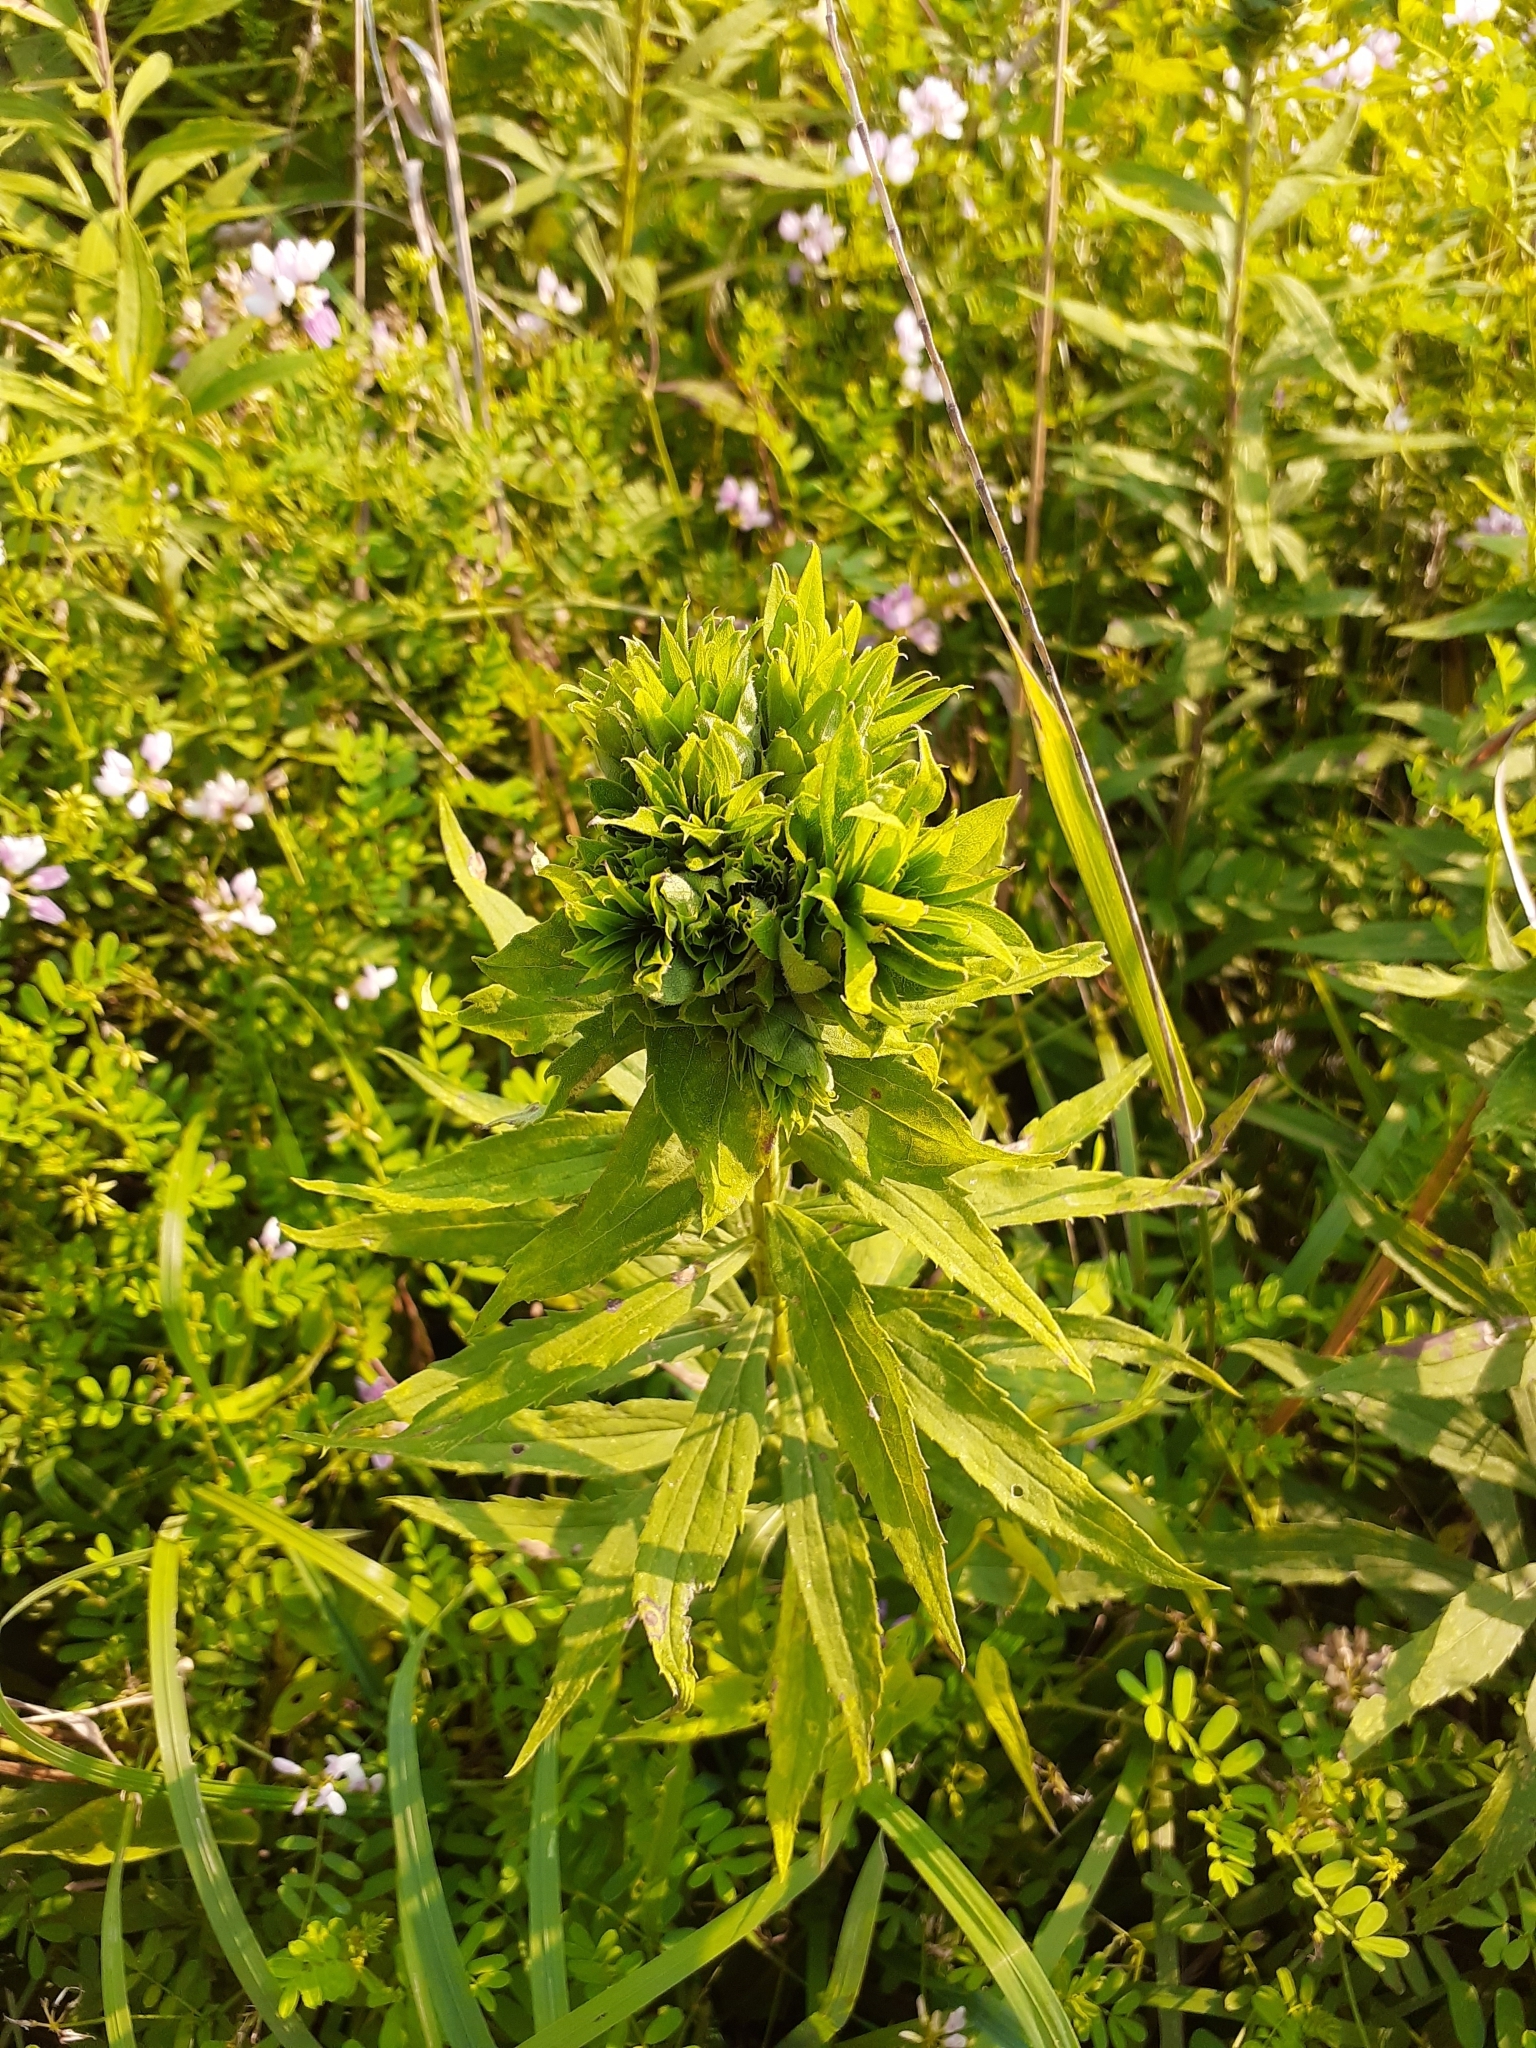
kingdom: Animalia
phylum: Arthropoda
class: Insecta
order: Diptera
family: Cecidomyiidae
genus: Rhopalomyia
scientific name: Rhopalomyia solidaginis
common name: Goldenrod bunch gall midge
